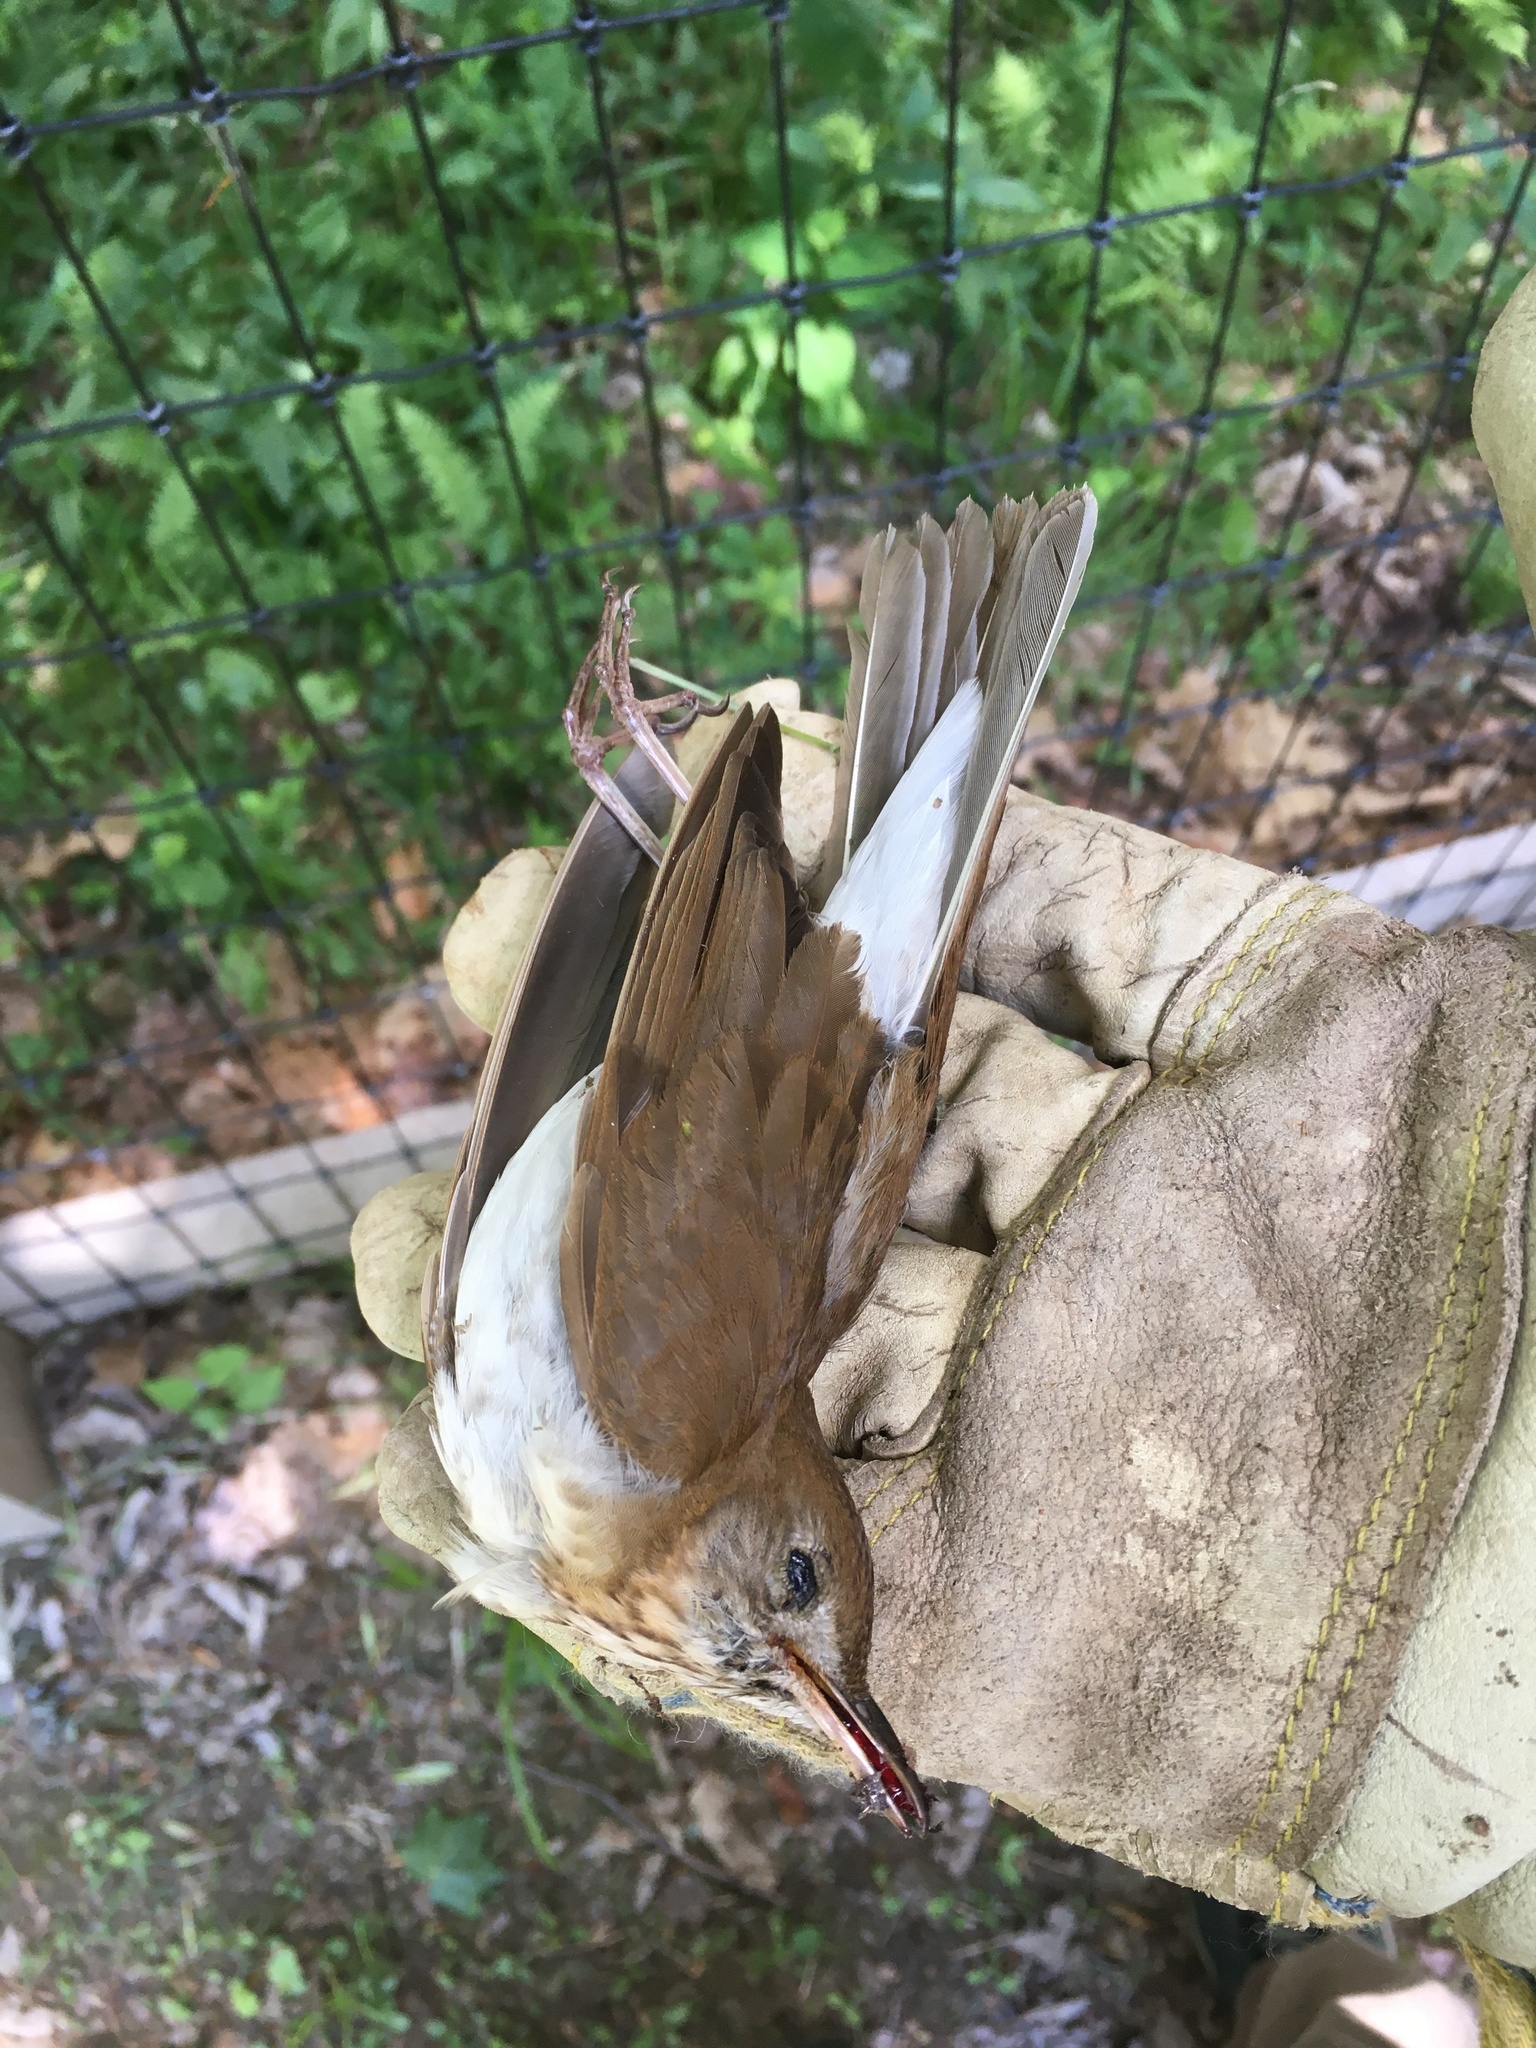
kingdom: Animalia
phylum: Chordata
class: Aves
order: Passeriformes
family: Turdidae
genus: Catharus
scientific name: Catharus fuscescens
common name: Veery
